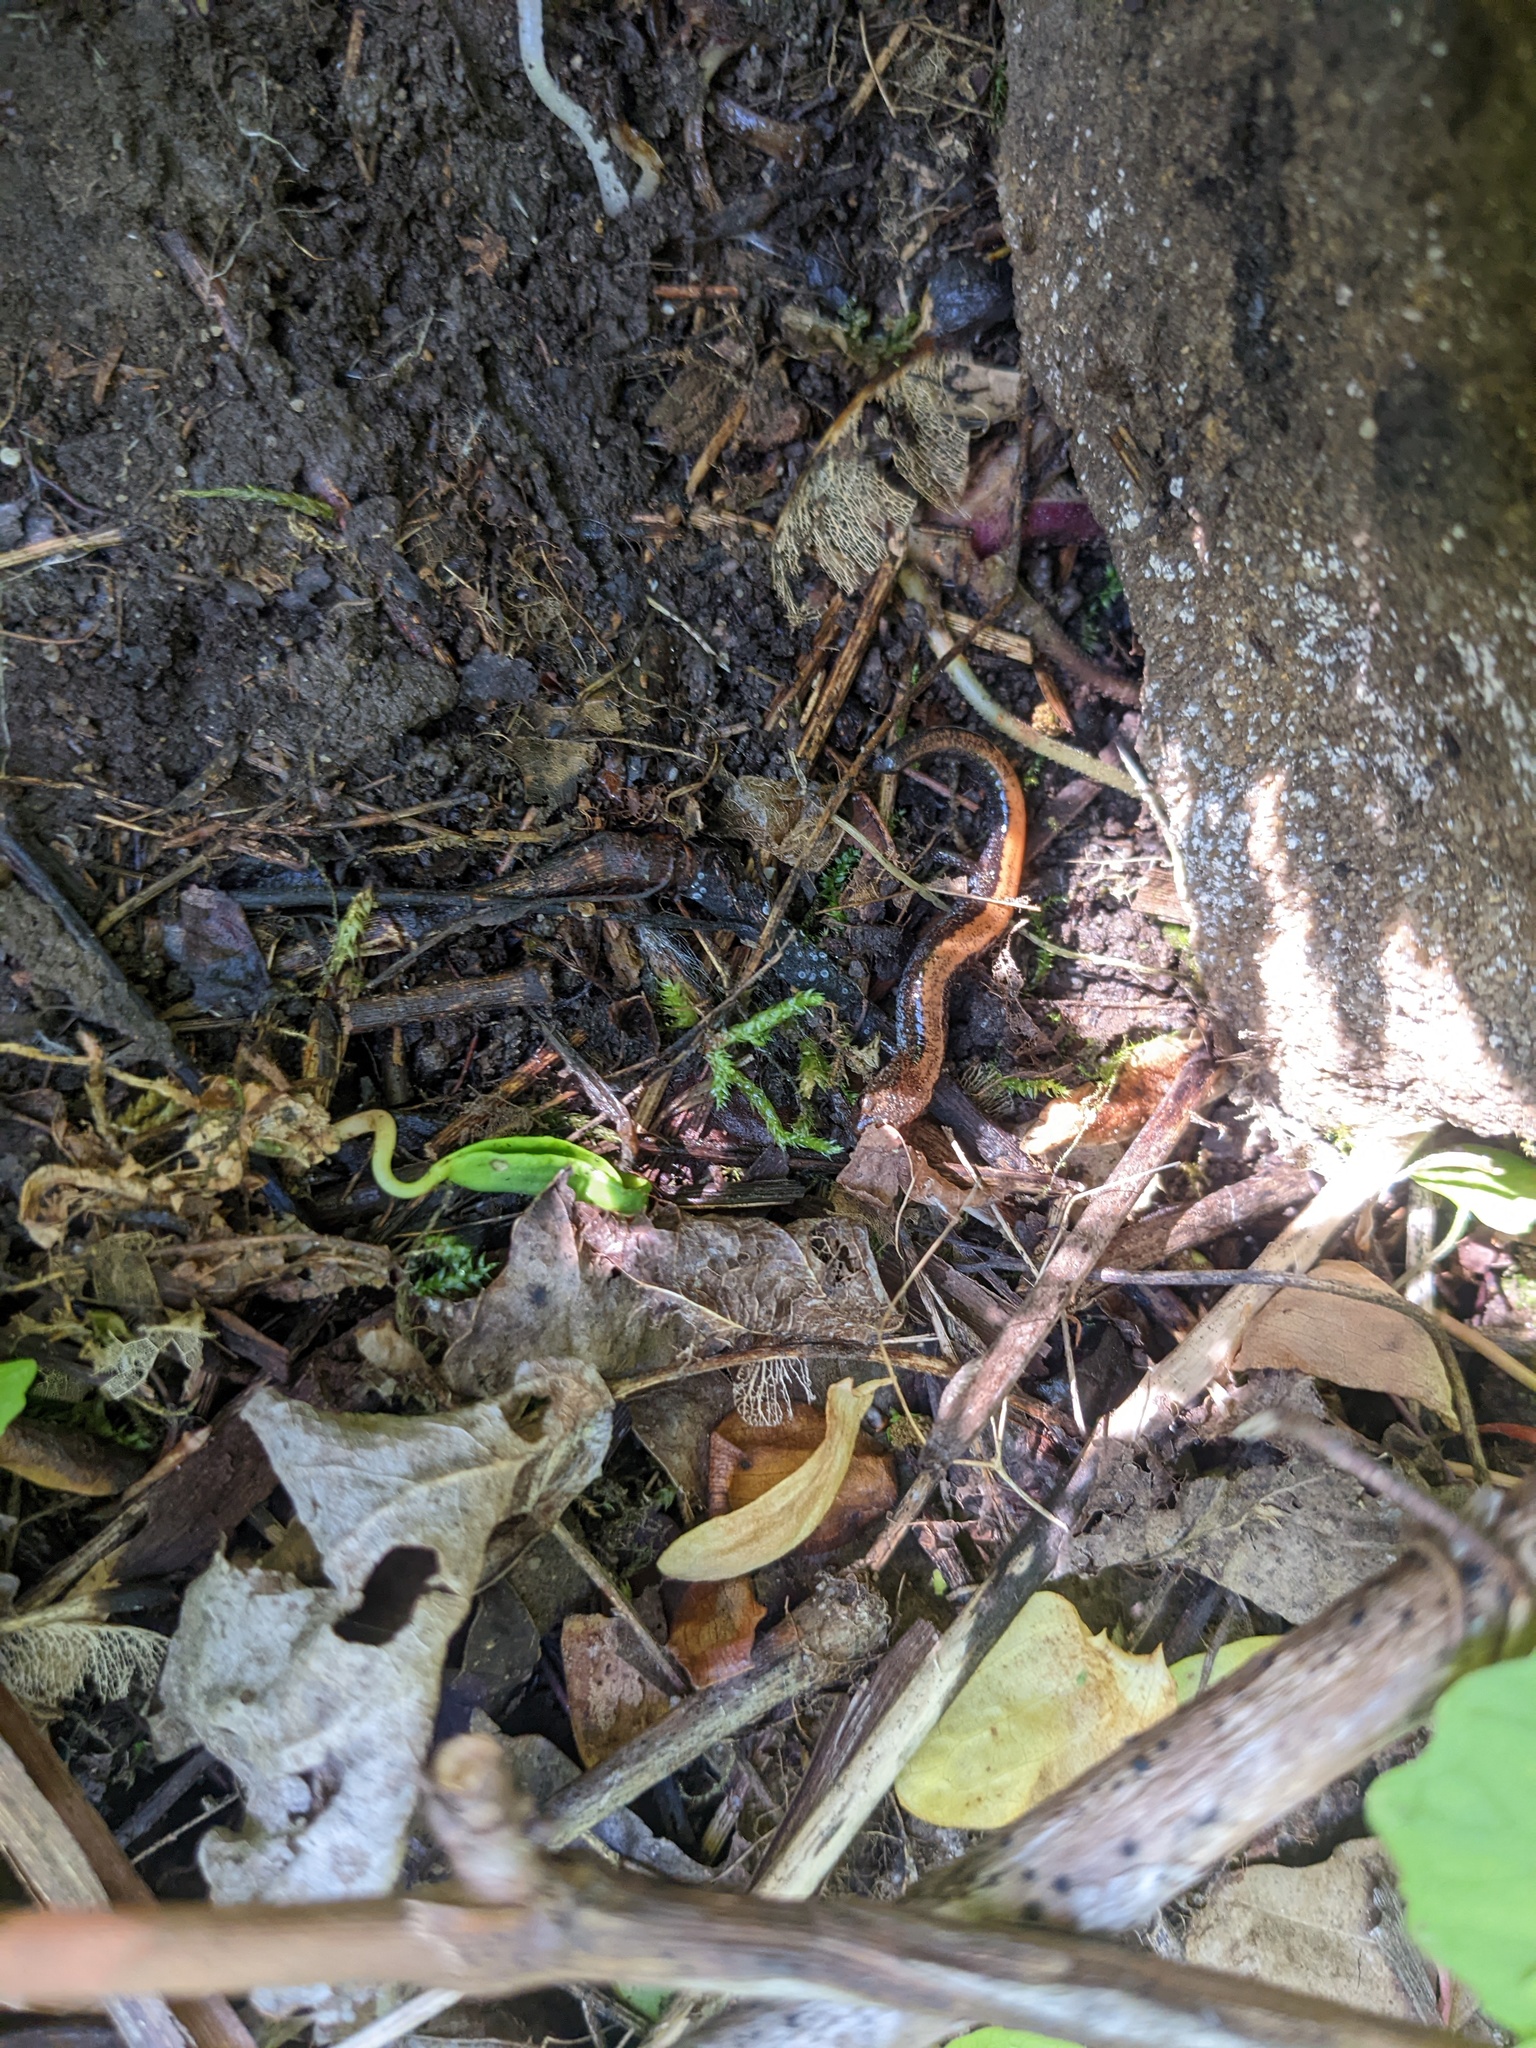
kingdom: Animalia
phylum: Chordata
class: Amphibia
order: Caudata
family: Plethodontidae
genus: Plethodon
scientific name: Plethodon cinereus
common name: Redback salamander
